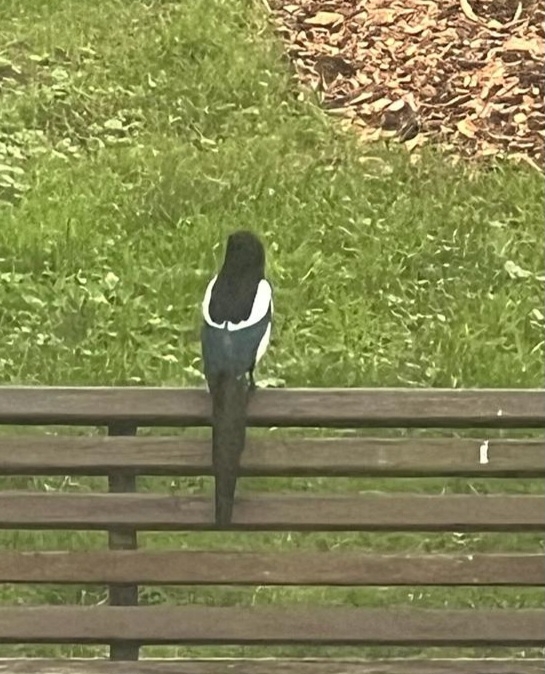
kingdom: Animalia
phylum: Chordata
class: Aves
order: Passeriformes
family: Corvidae
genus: Pica
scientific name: Pica pica
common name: Eurasian magpie
